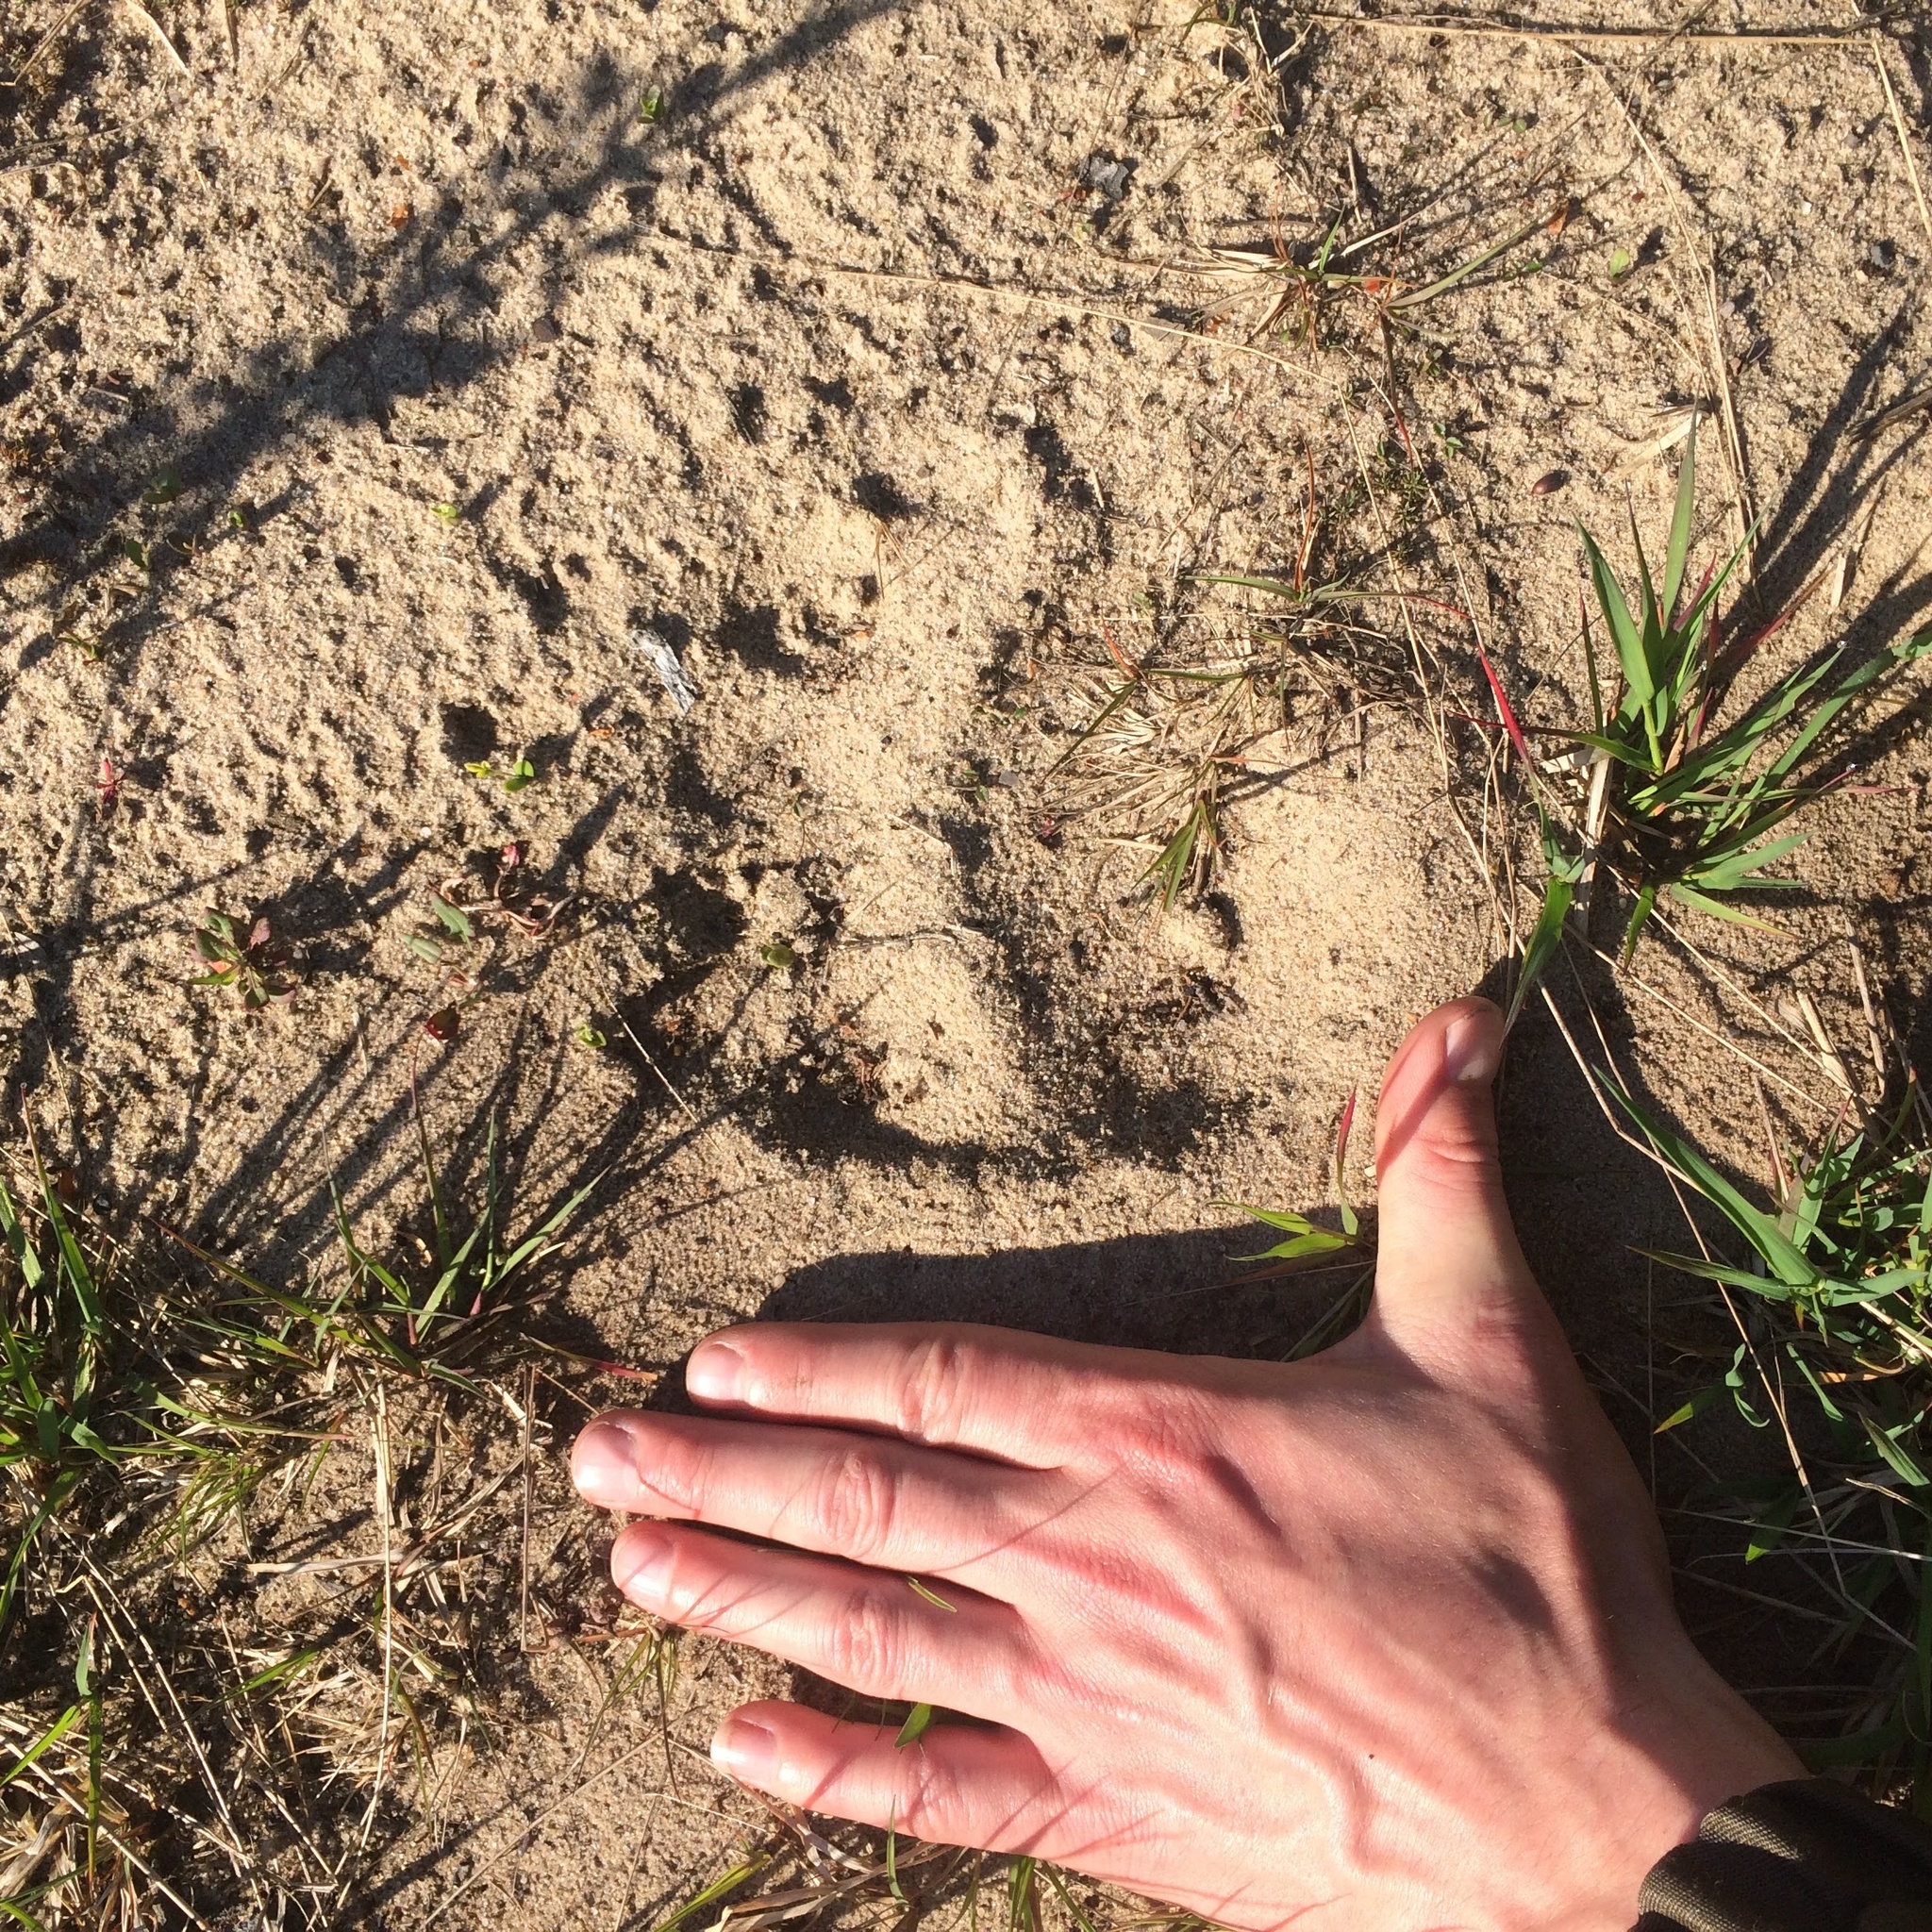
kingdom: Animalia
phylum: Chordata
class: Mammalia
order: Carnivora
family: Ursidae
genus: Ursus
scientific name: Ursus arctos
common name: Brown bear
